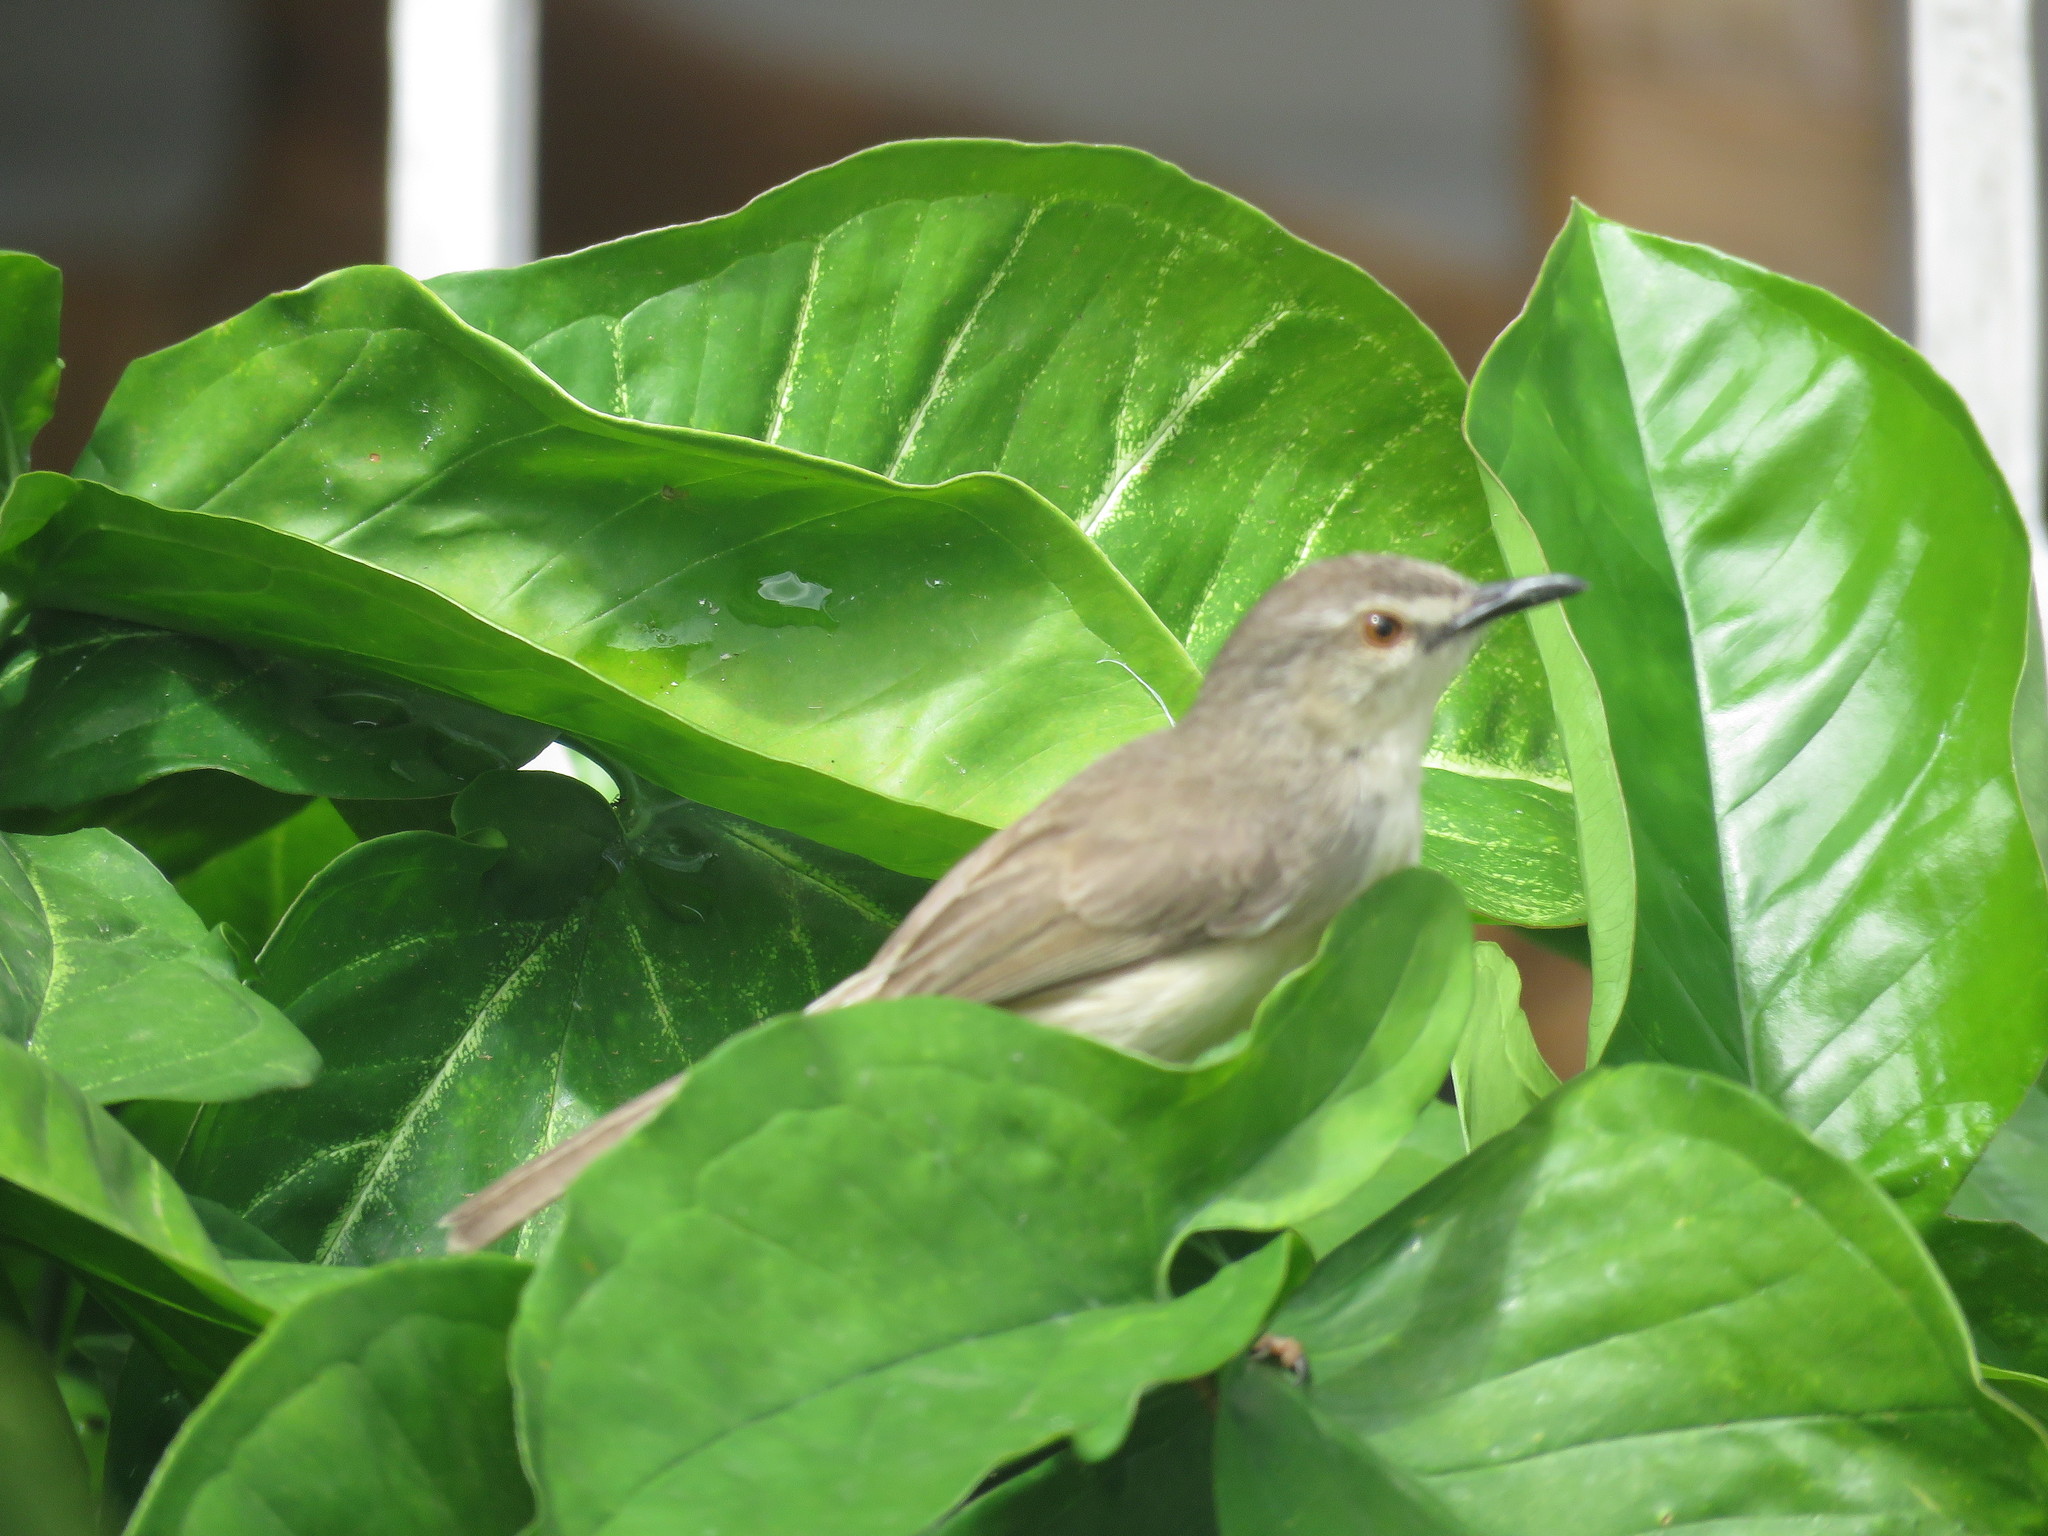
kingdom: Animalia
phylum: Chordata
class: Aves
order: Passeriformes
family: Cisticolidae
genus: Prinia
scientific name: Prinia subflava
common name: Tawny-flanked prinia
